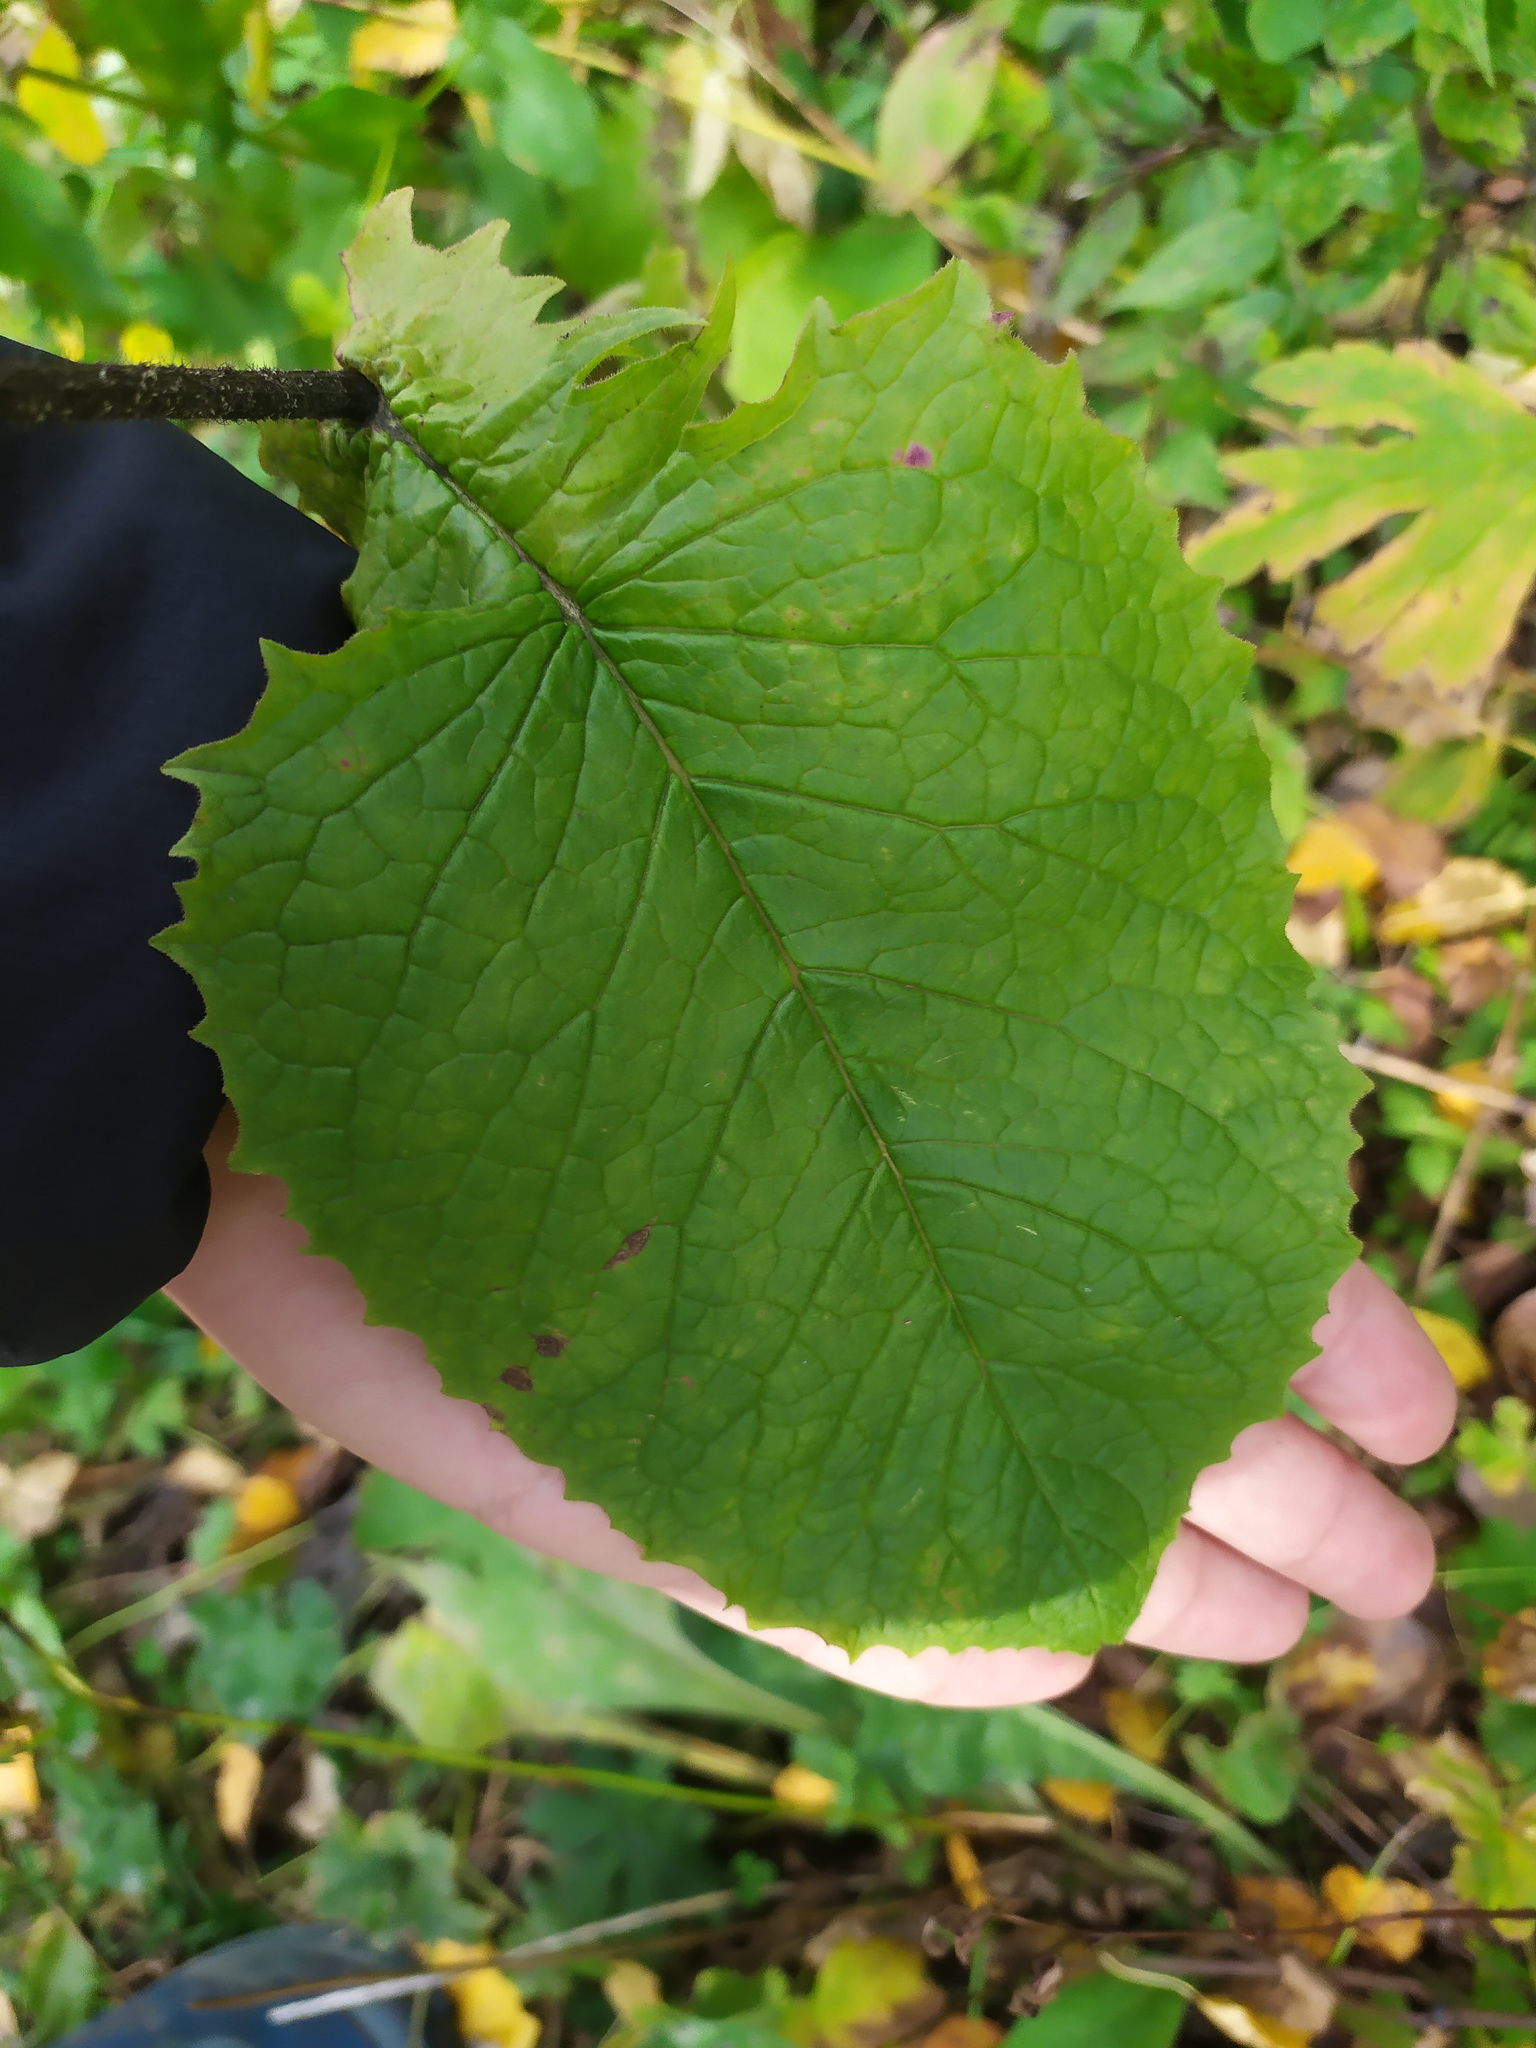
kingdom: Plantae
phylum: Tracheophyta
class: Magnoliopsida
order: Asterales
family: Asteraceae
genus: Crepis
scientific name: Crepis sibirica
